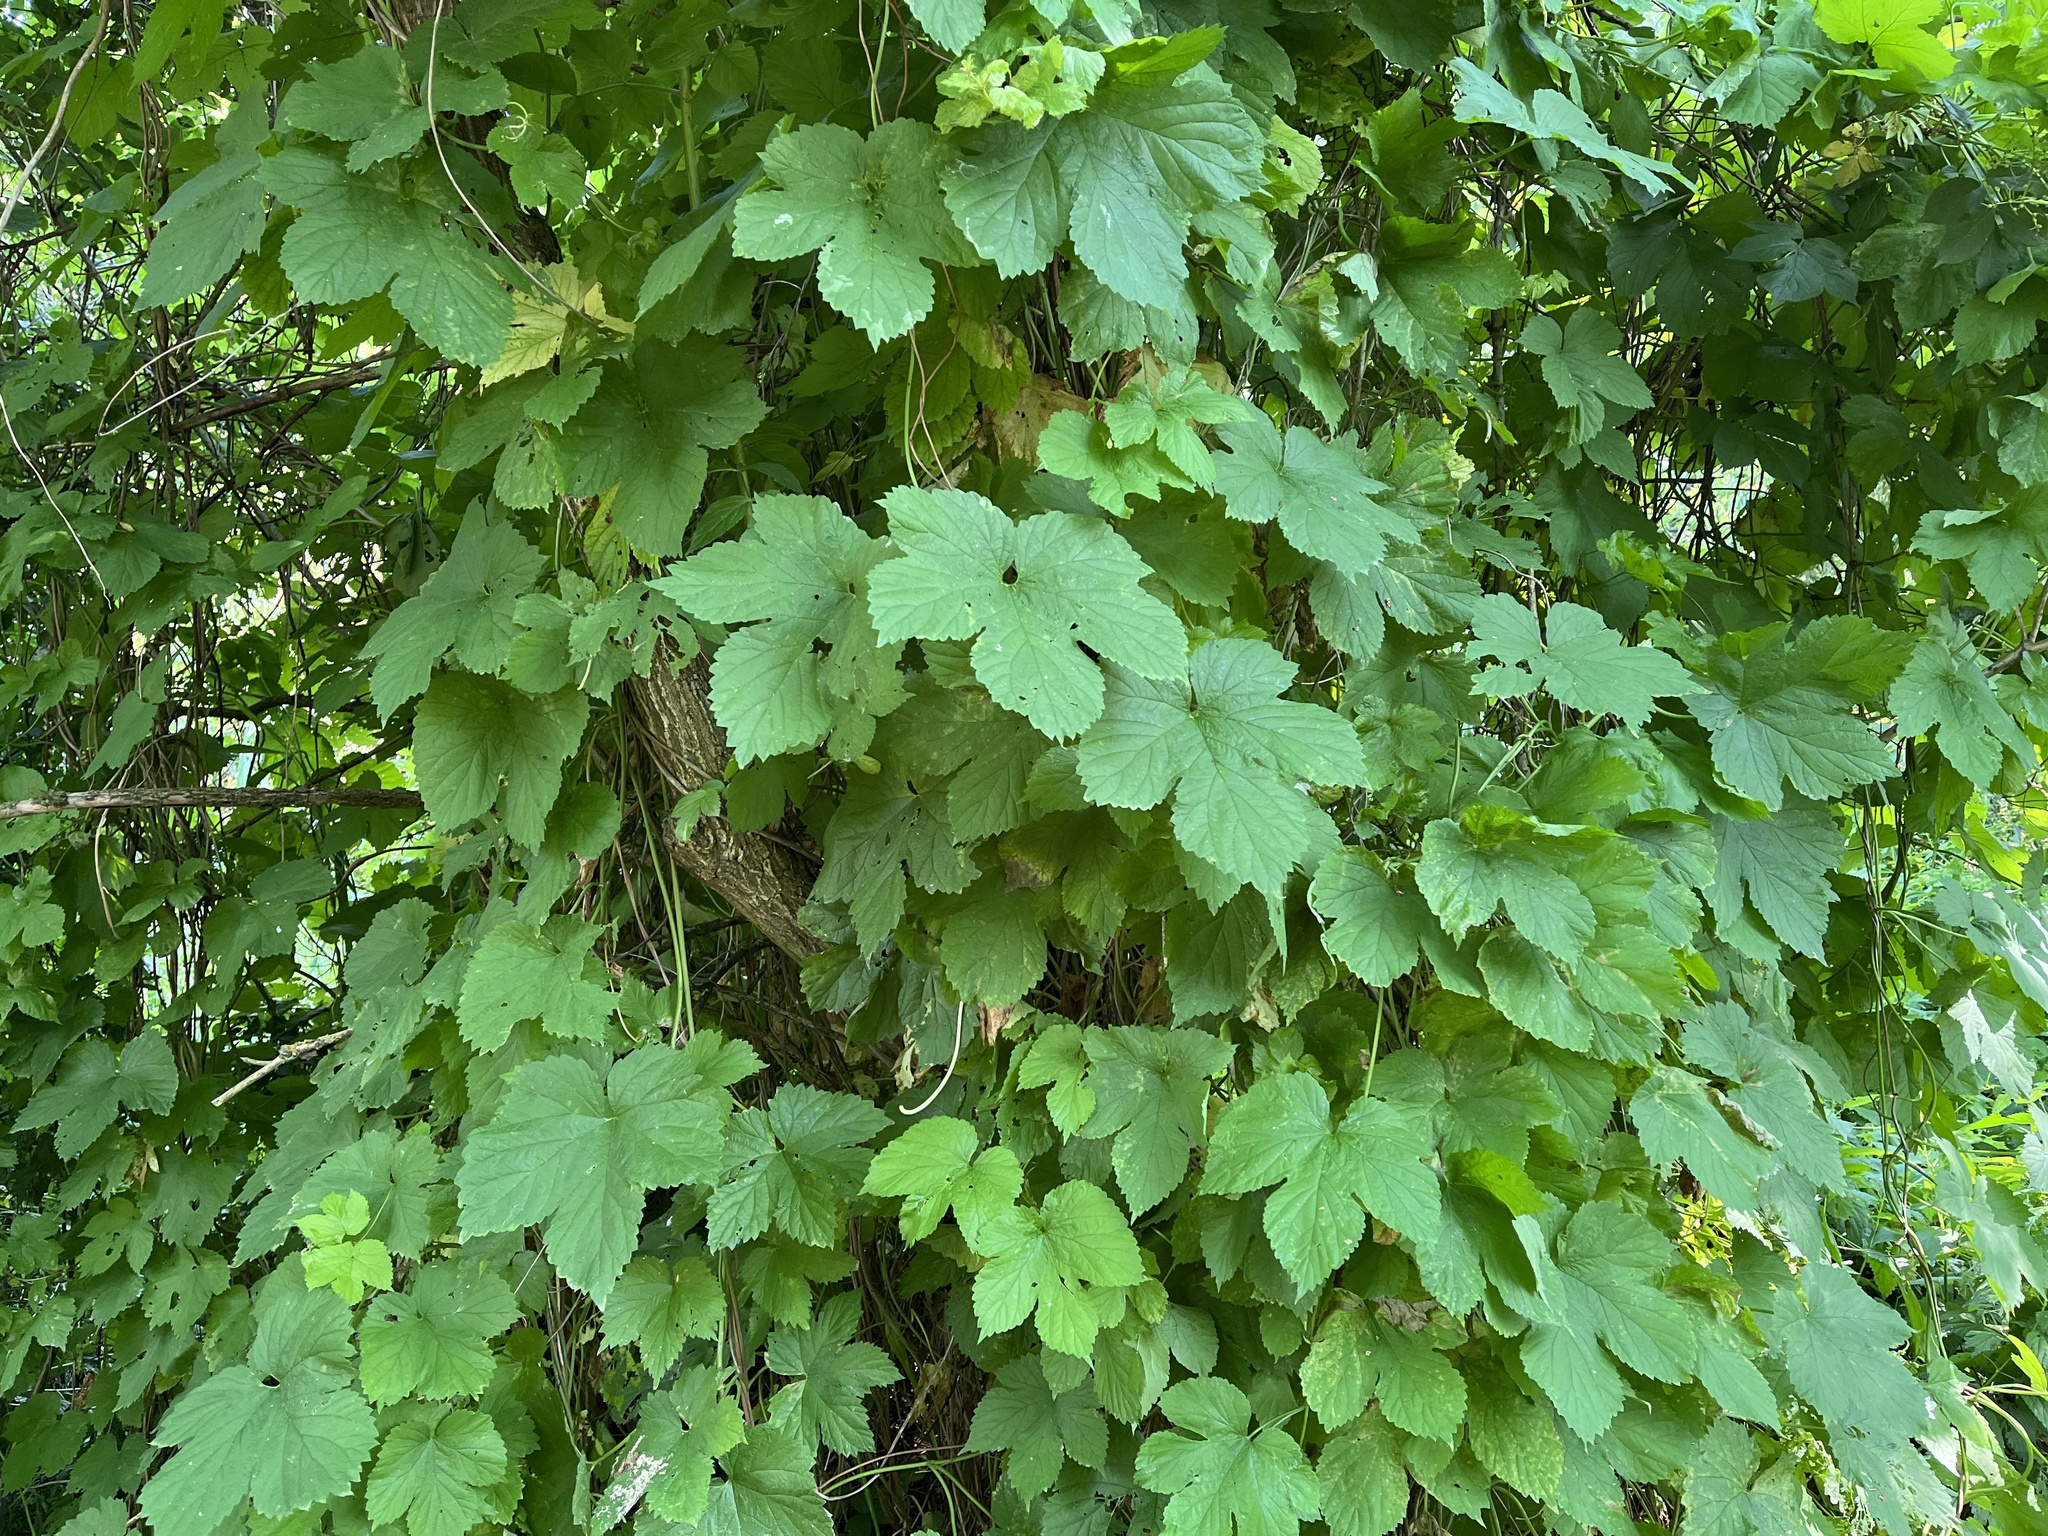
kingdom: Plantae
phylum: Tracheophyta
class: Magnoliopsida
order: Rosales
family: Cannabaceae
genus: Humulus
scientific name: Humulus lupulus
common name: Hop
